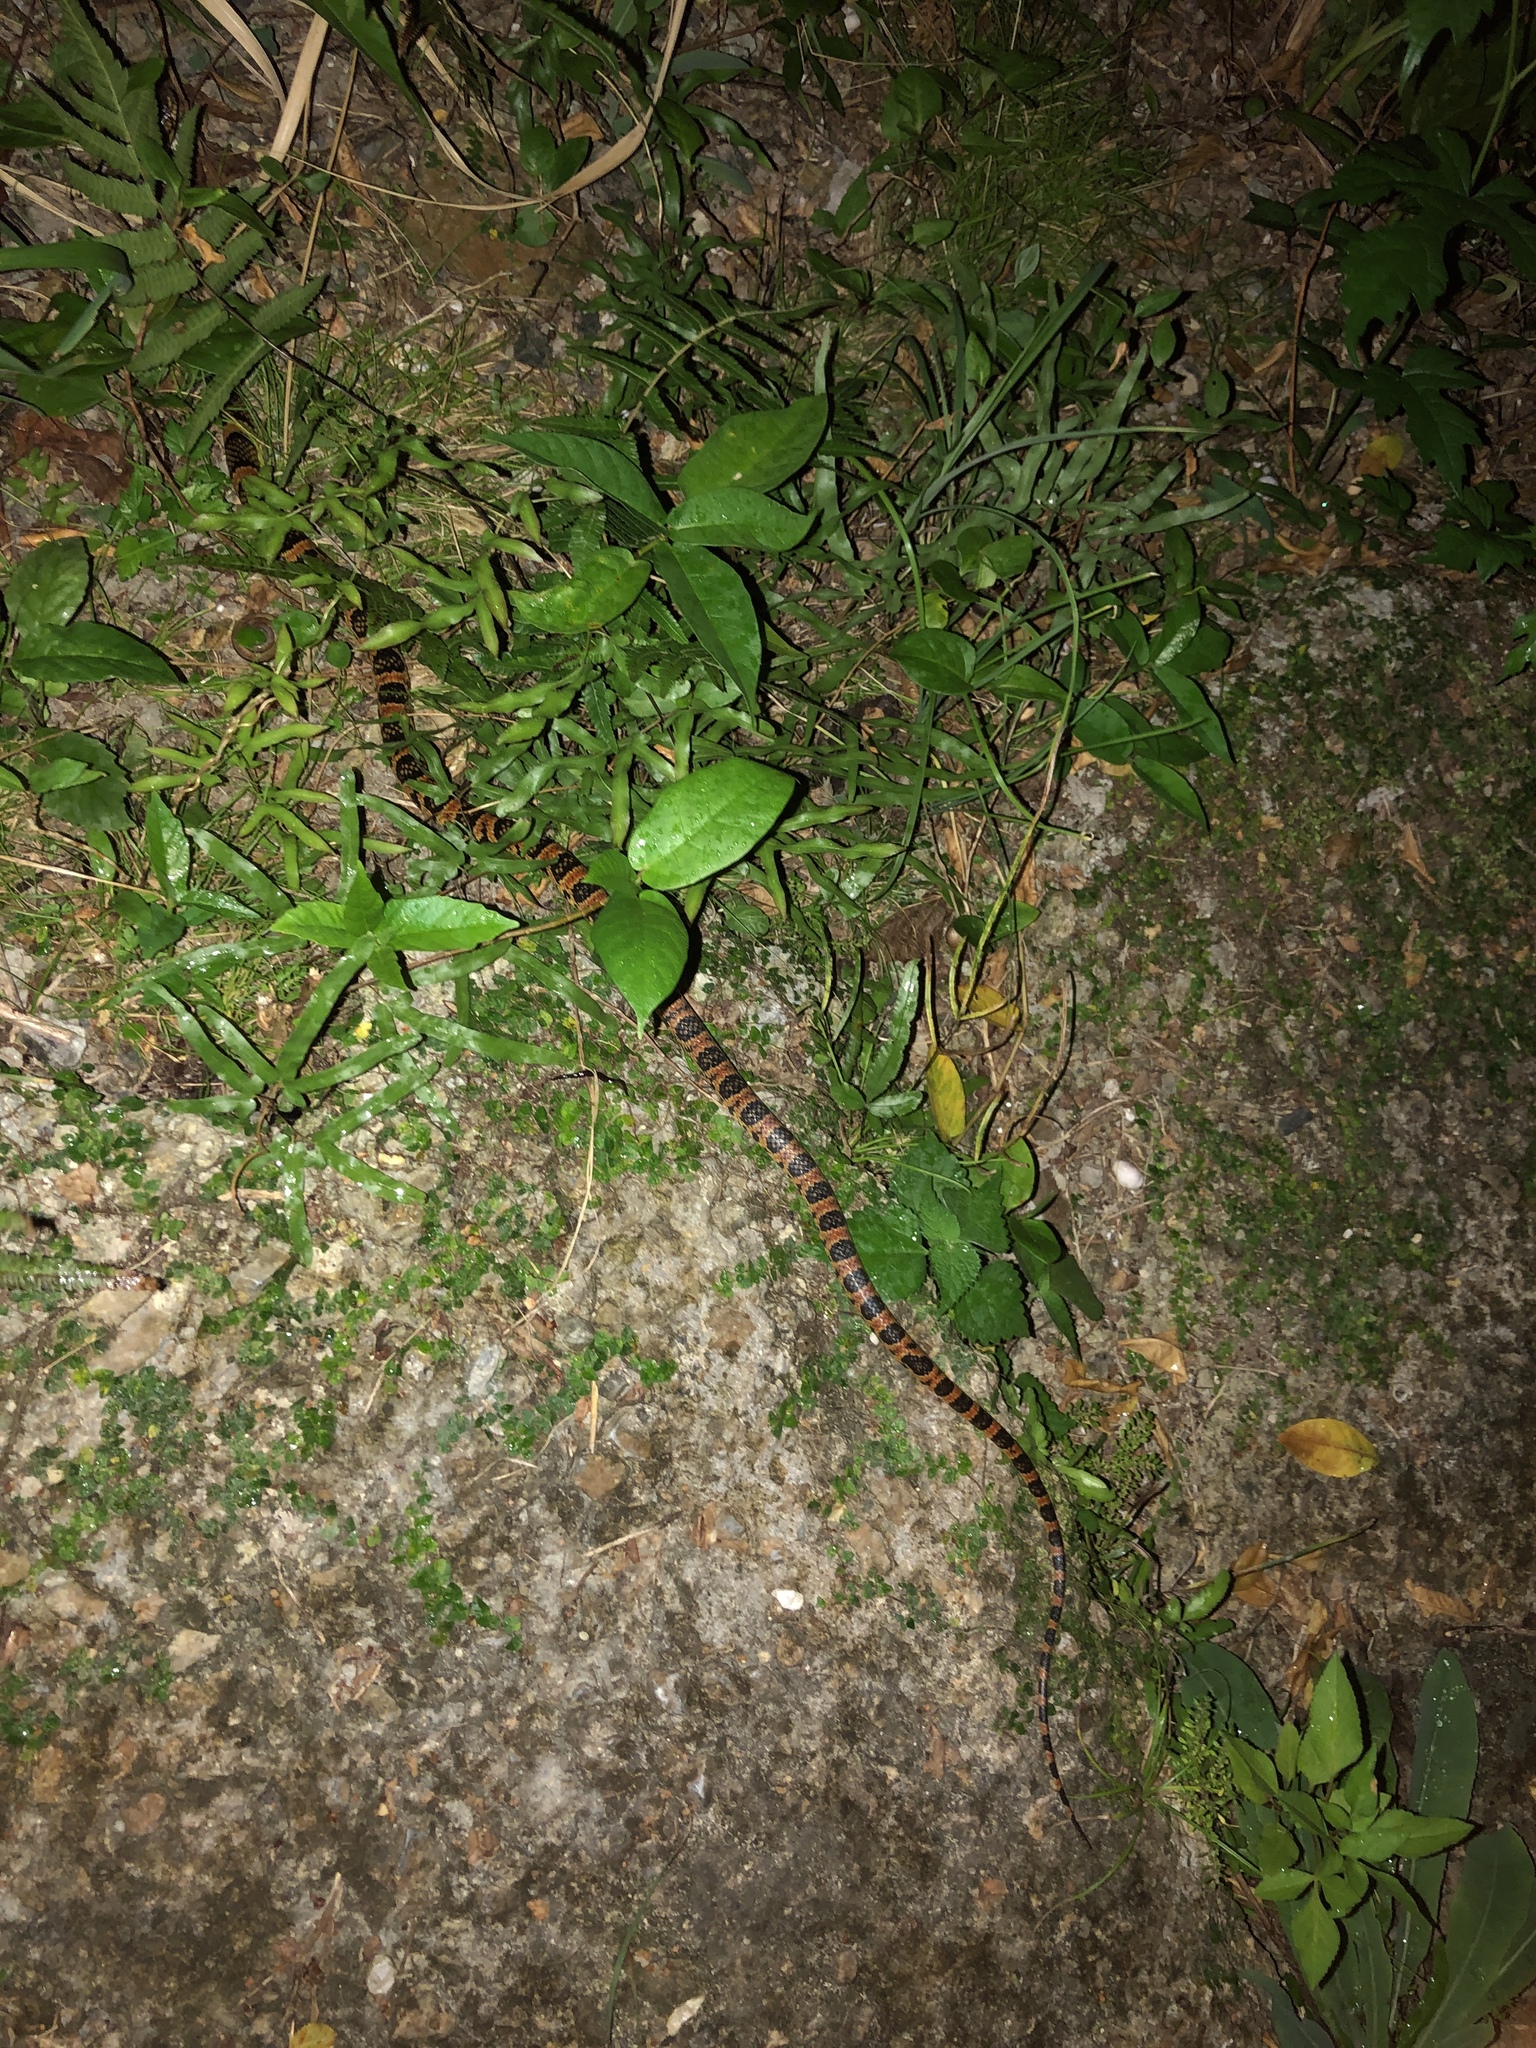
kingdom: Animalia
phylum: Chordata
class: Squamata
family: Colubridae
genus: Lycodon
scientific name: Lycodon semicarinatus
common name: Loo-choo big-tooth snake
